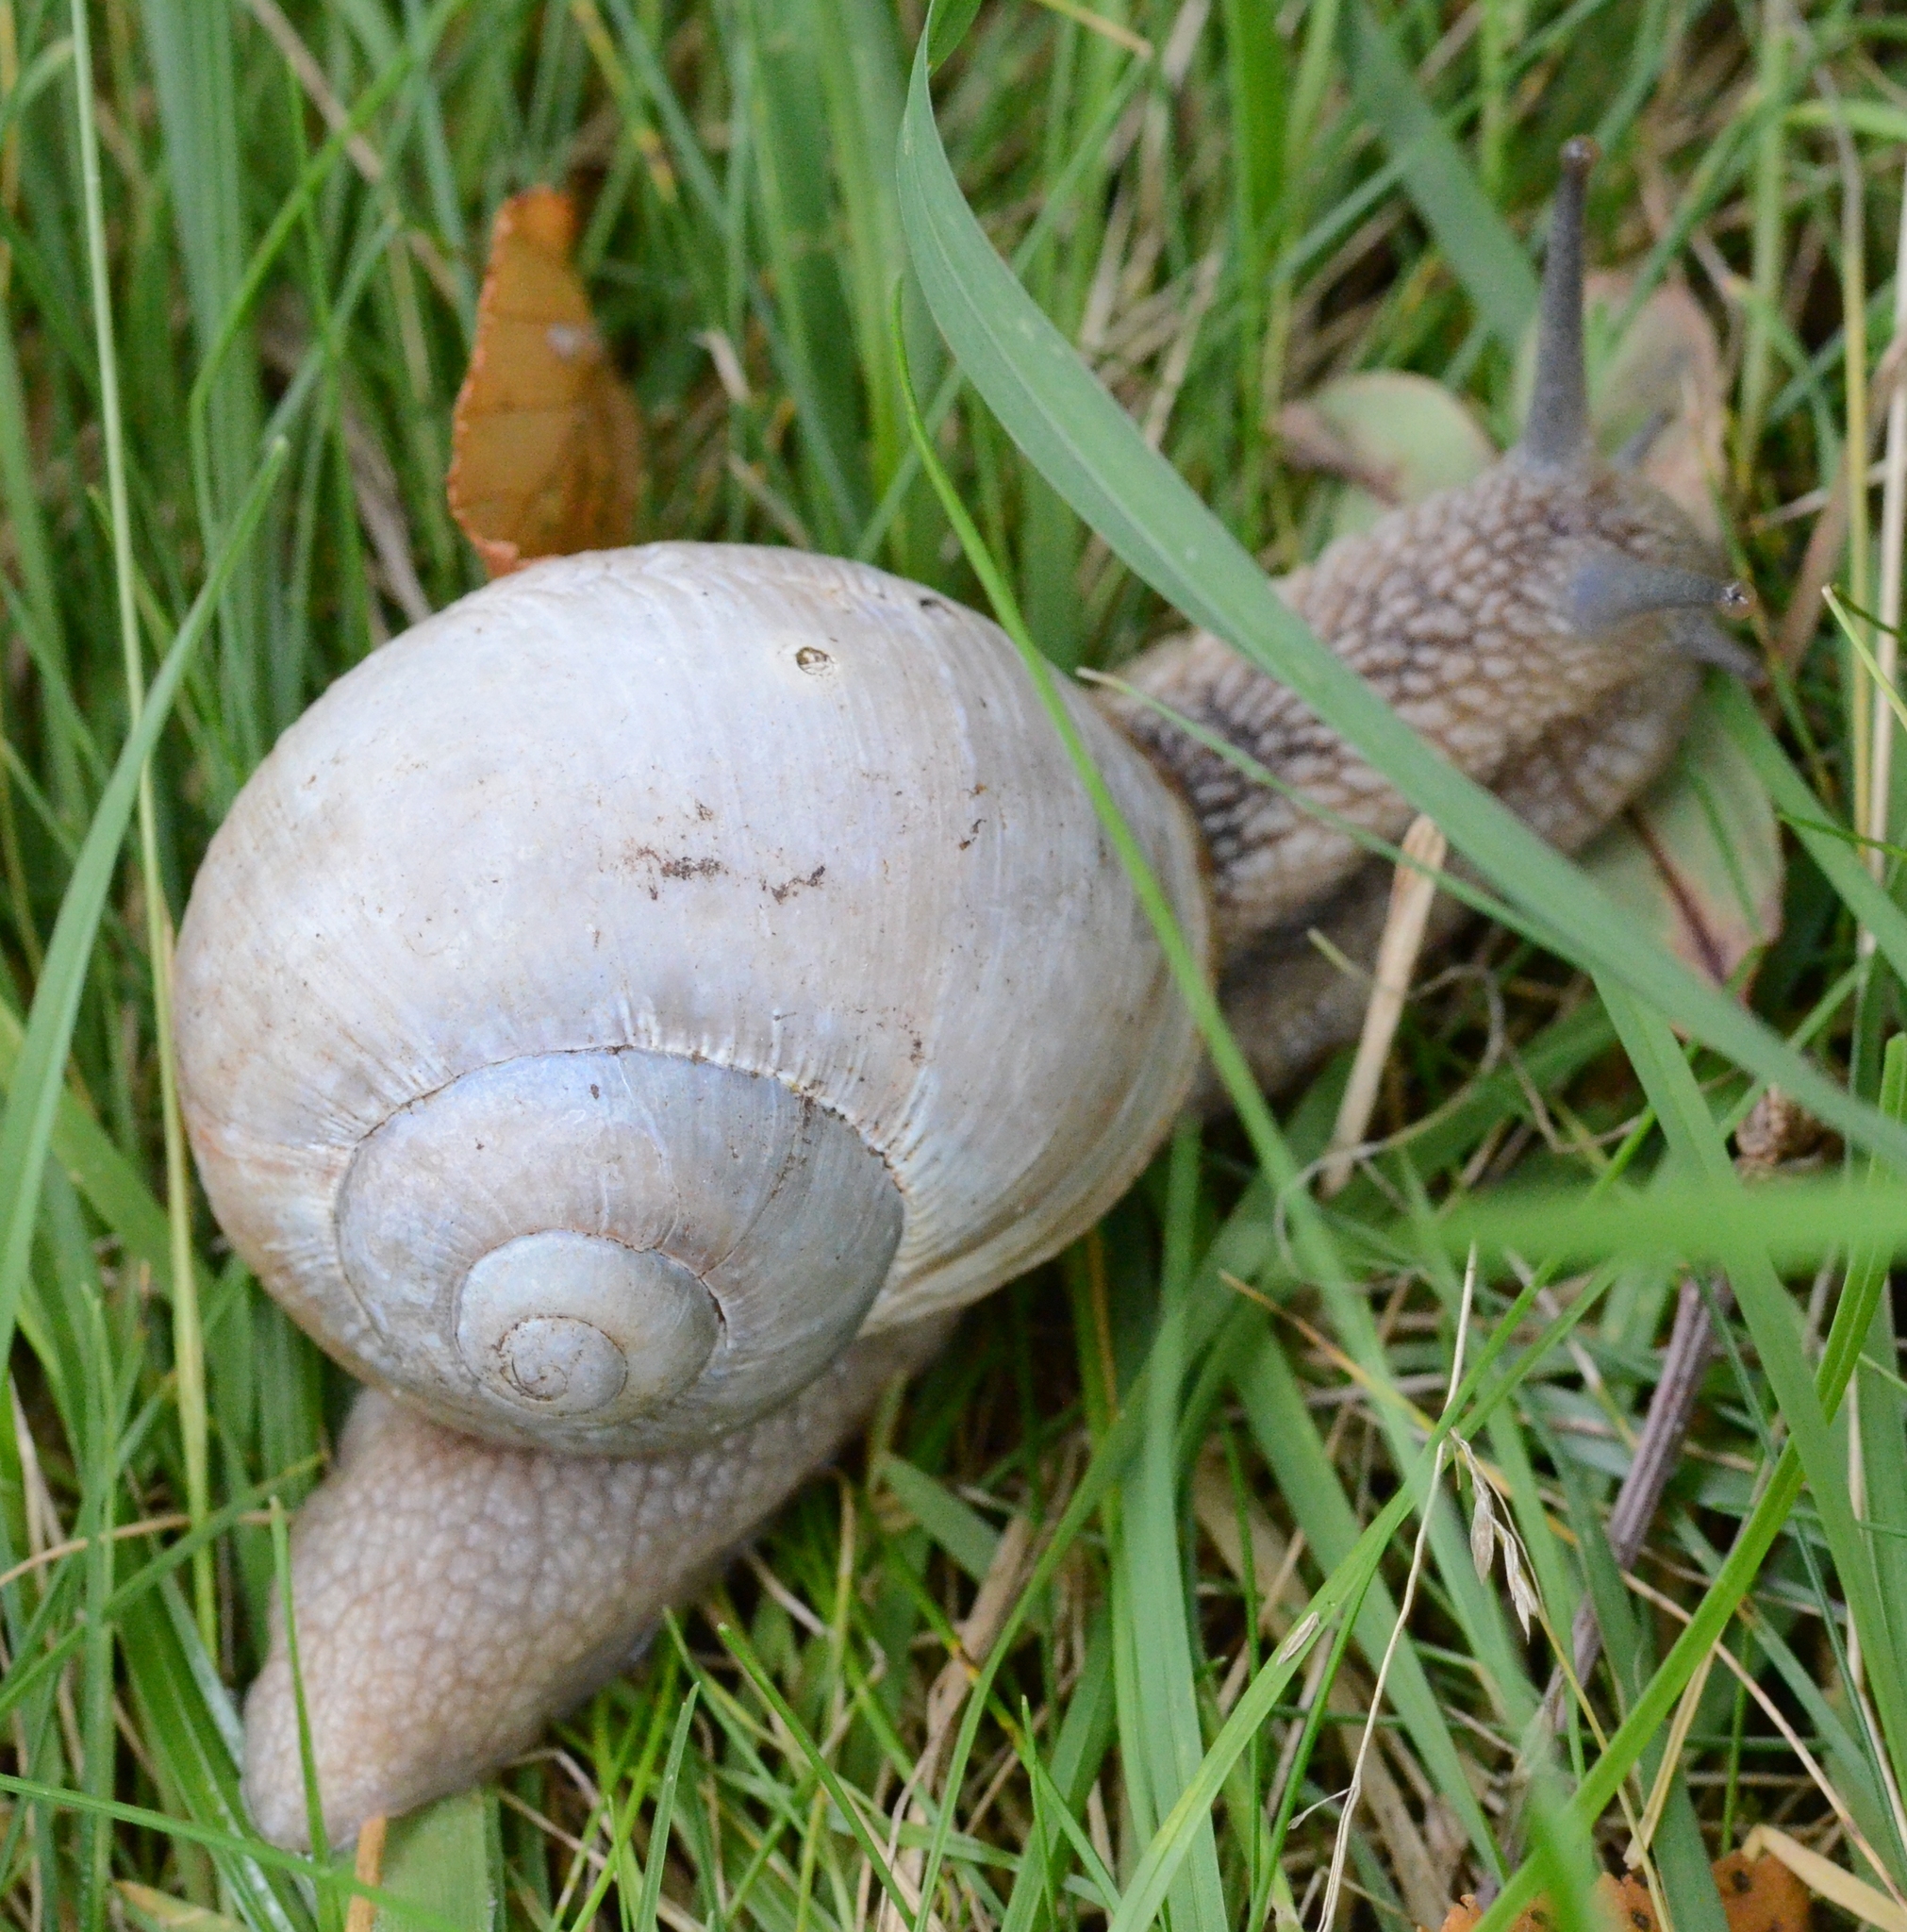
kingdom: Animalia
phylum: Mollusca
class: Gastropoda
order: Stylommatophora
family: Helicidae
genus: Helix
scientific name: Helix pomatia
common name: Roman snail
